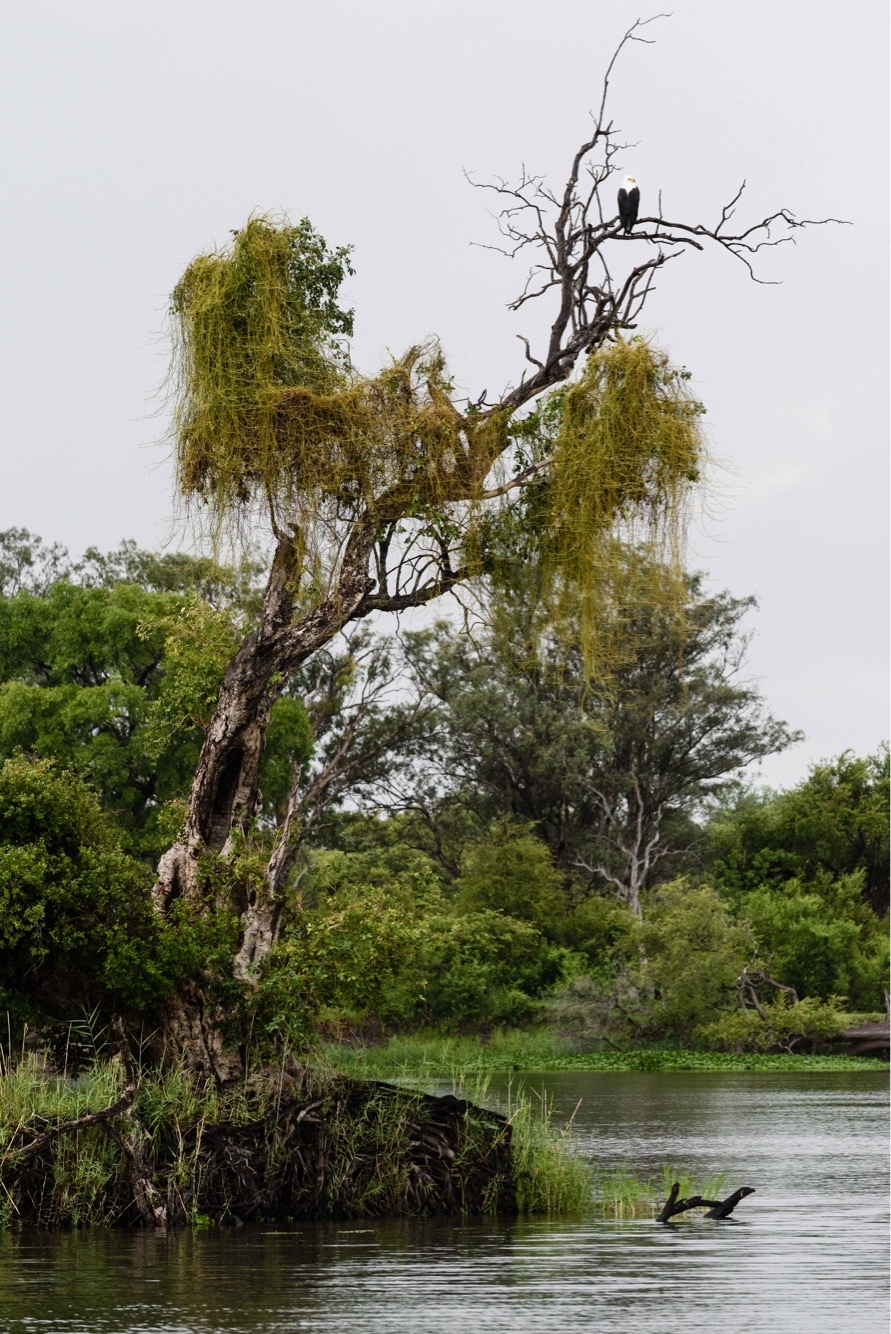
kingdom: Animalia
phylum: Chordata
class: Aves
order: Accipitriformes
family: Accipitridae
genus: Haliaeetus
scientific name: Haliaeetus vocifer
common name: African fish eagle
